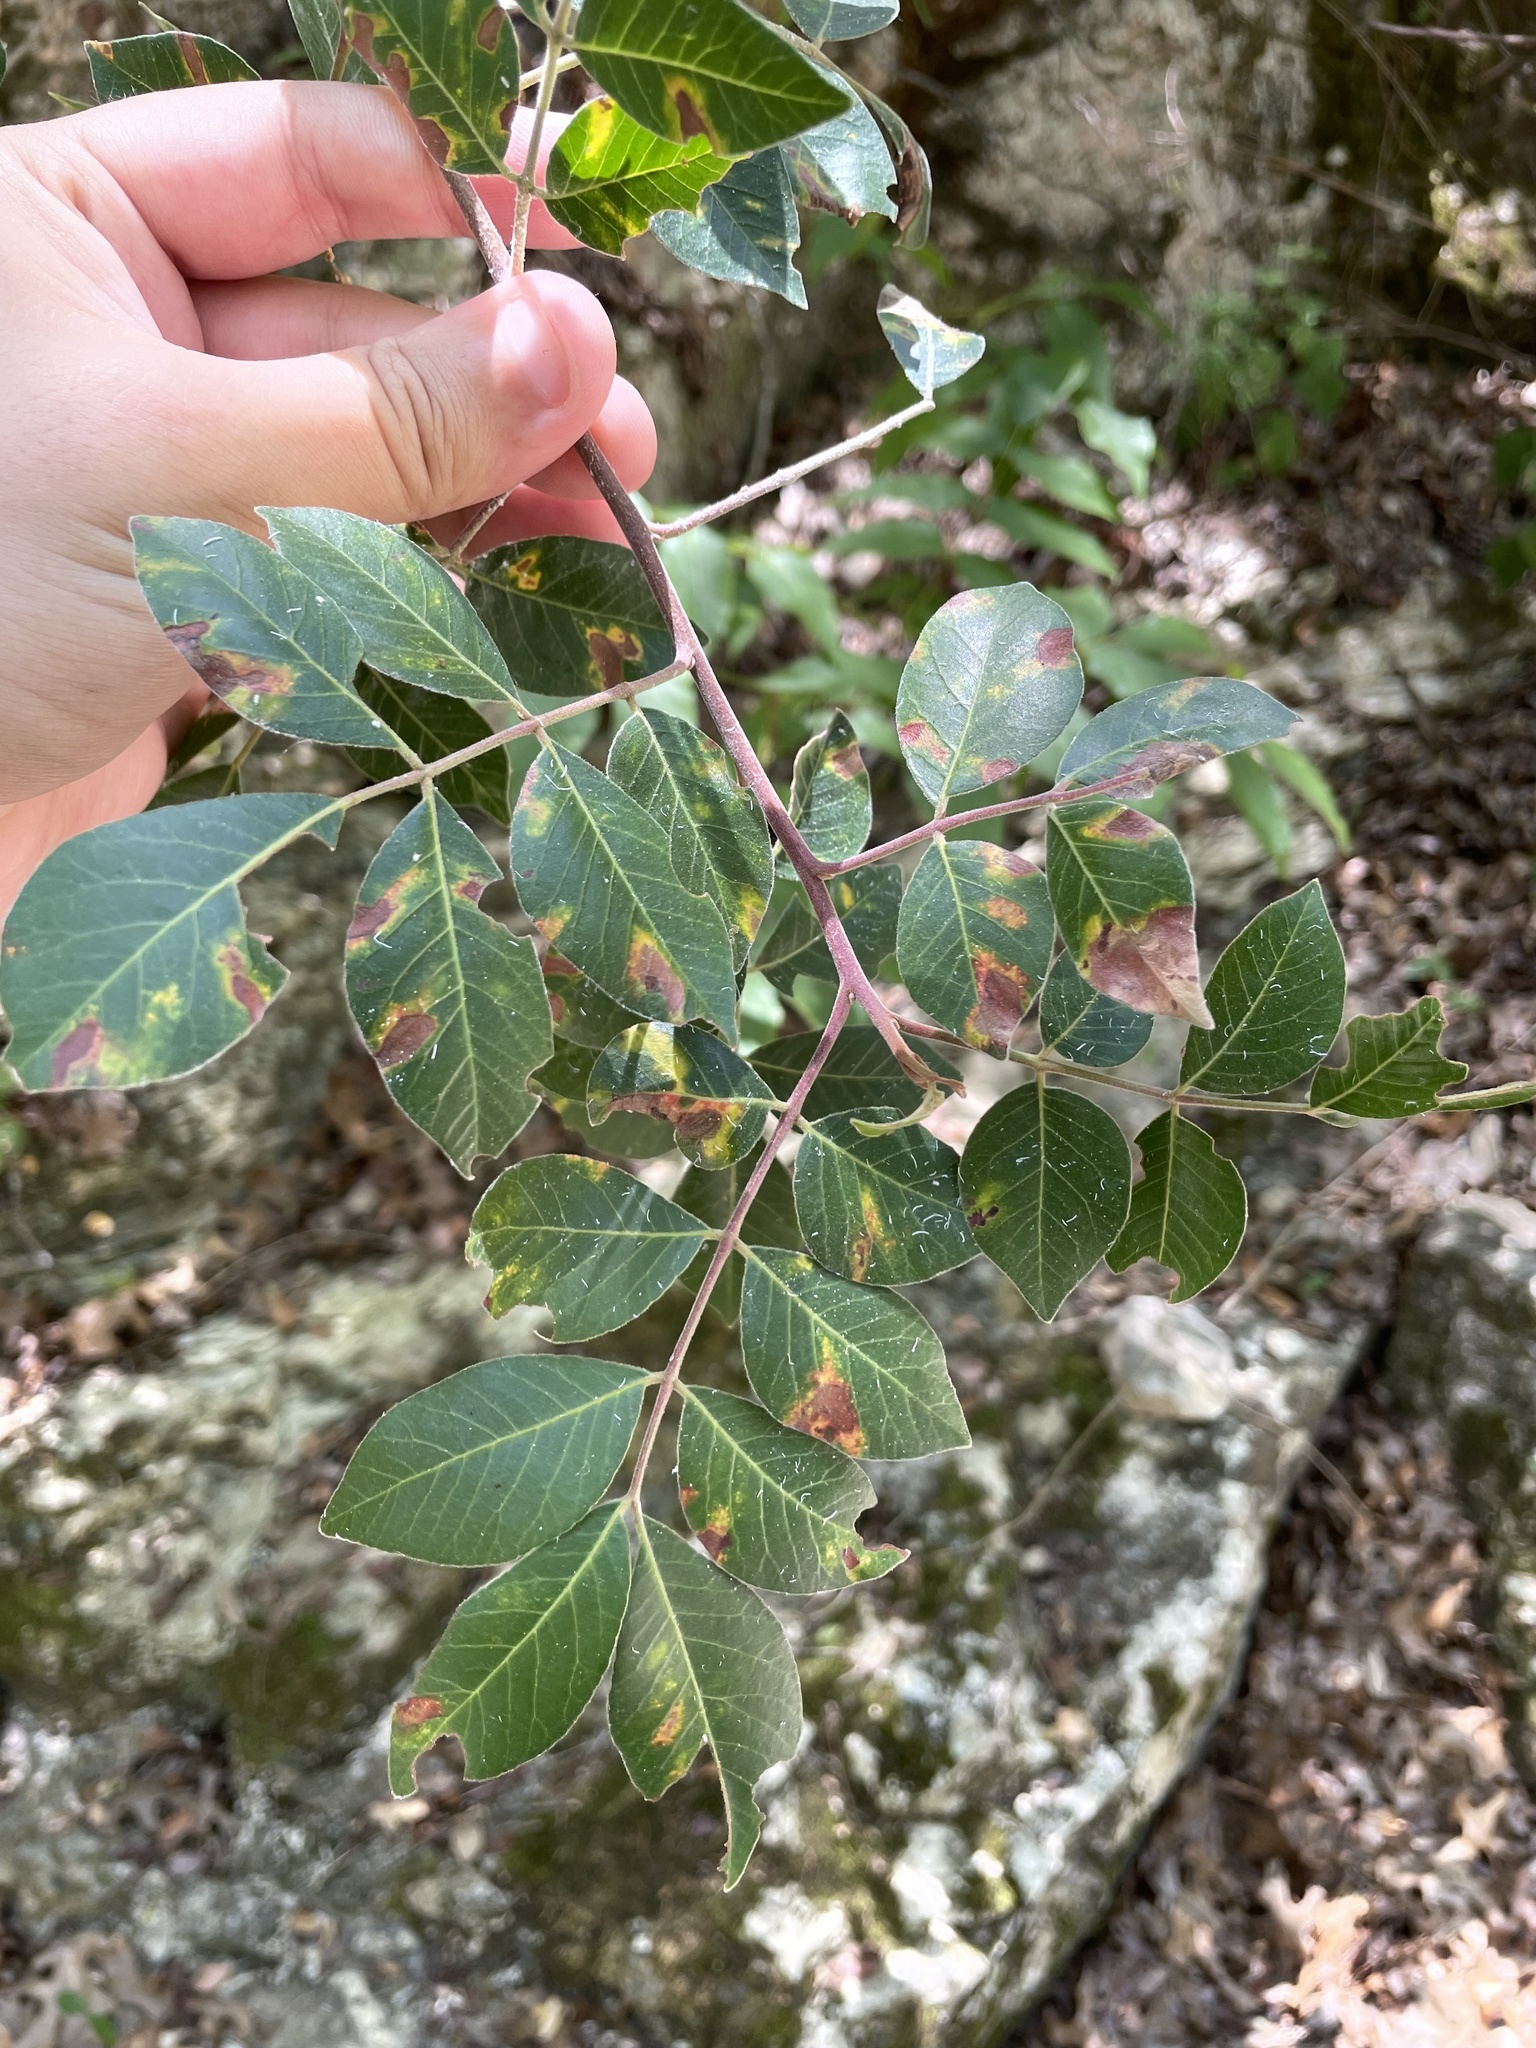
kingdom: Plantae
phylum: Tracheophyta
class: Magnoliopsida
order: Sapindales
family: Anacardiaceae
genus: Rhus
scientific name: Rhus virens
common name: Evergreen sumac
